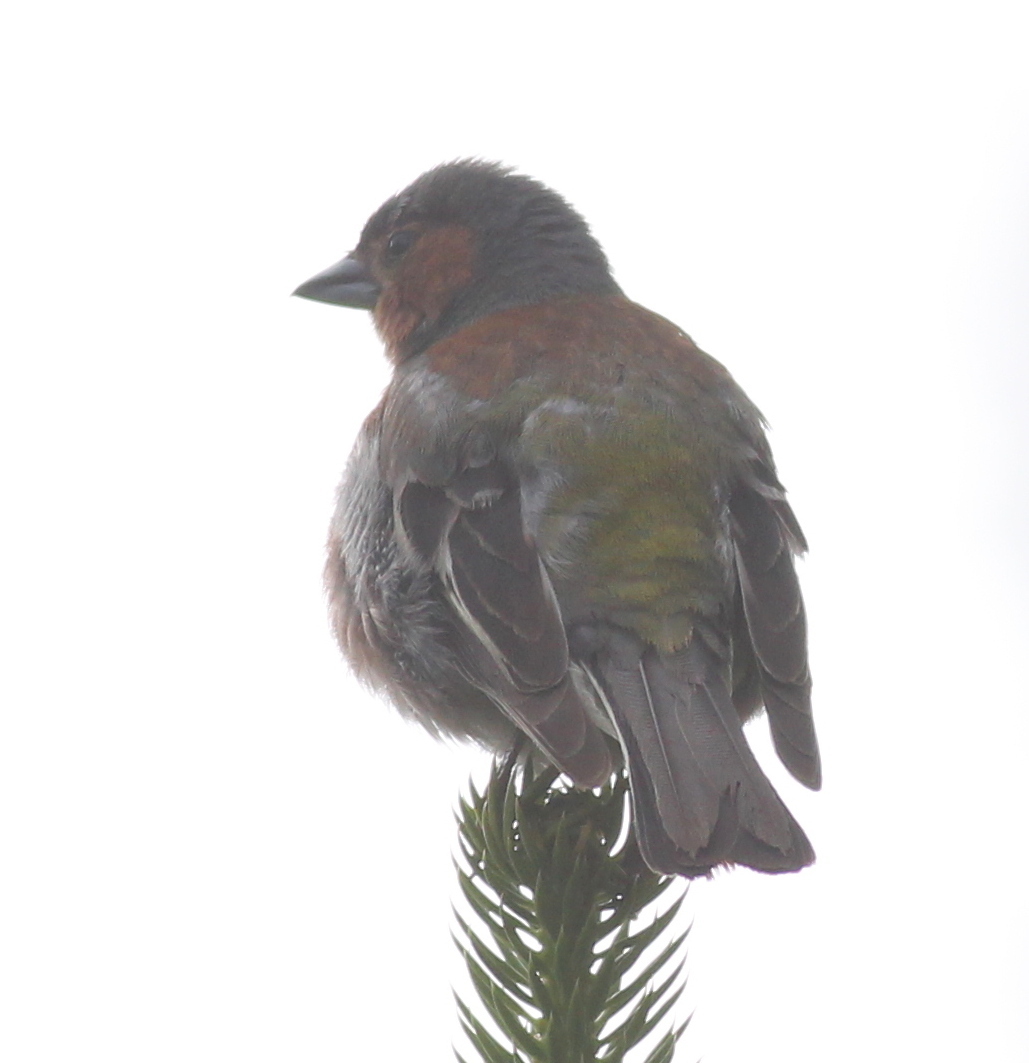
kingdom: Animalia
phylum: Chordata
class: Aves
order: Passeriformes
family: Fringillidae
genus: Fringilla
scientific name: Fringilla coelebs
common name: Common chaffinch
